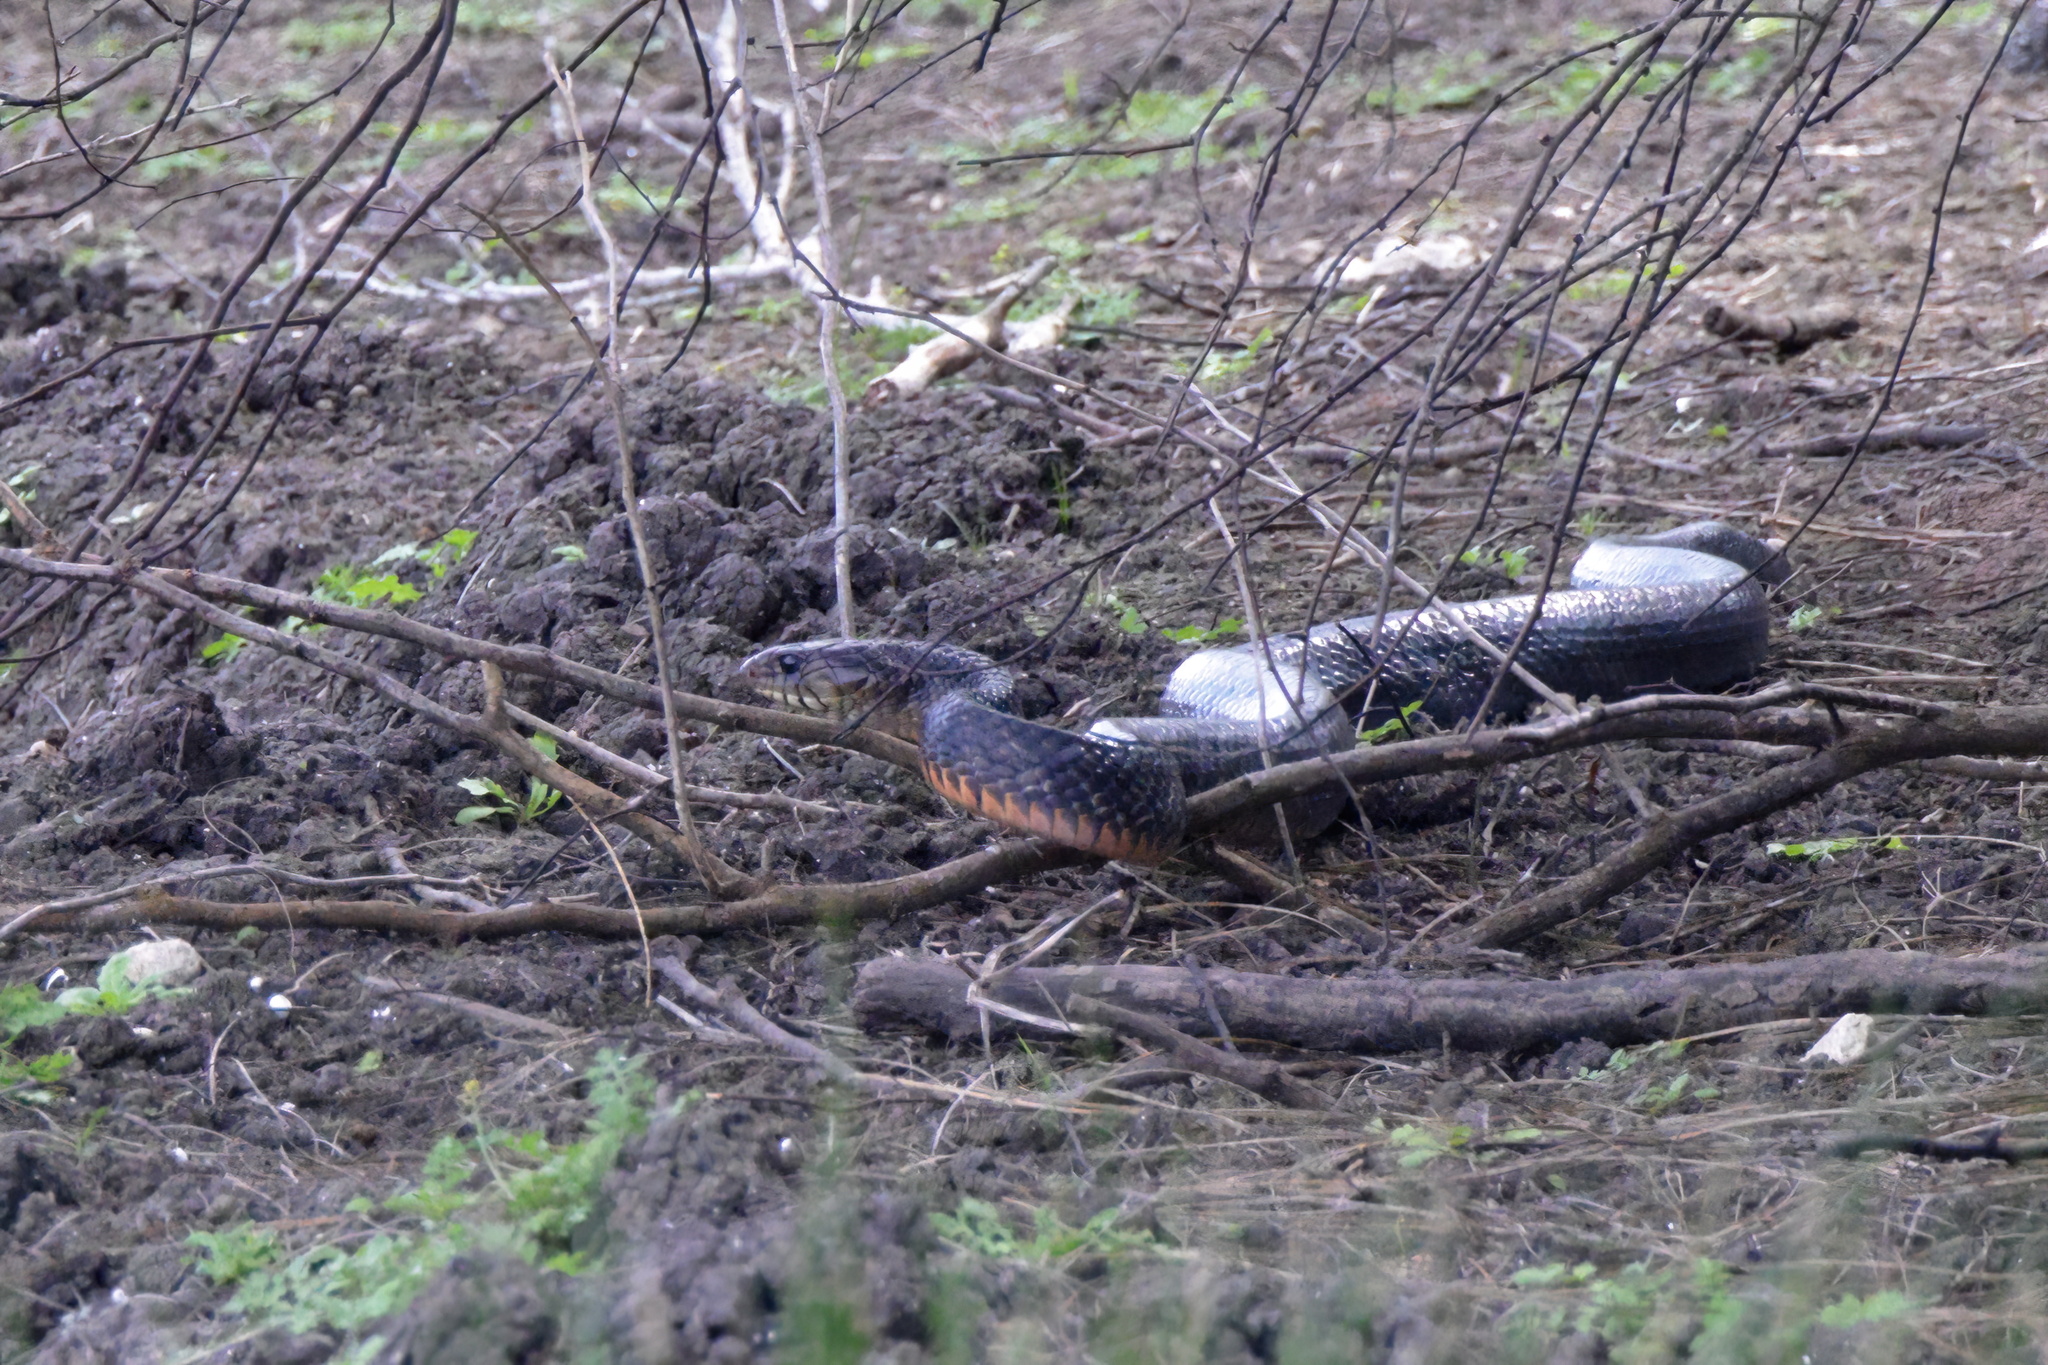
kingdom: Animalia
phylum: Chordata
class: Squamata
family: Colubridae
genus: Drymarchon
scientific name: Drymarchon melanurus
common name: Central american indigo snake
